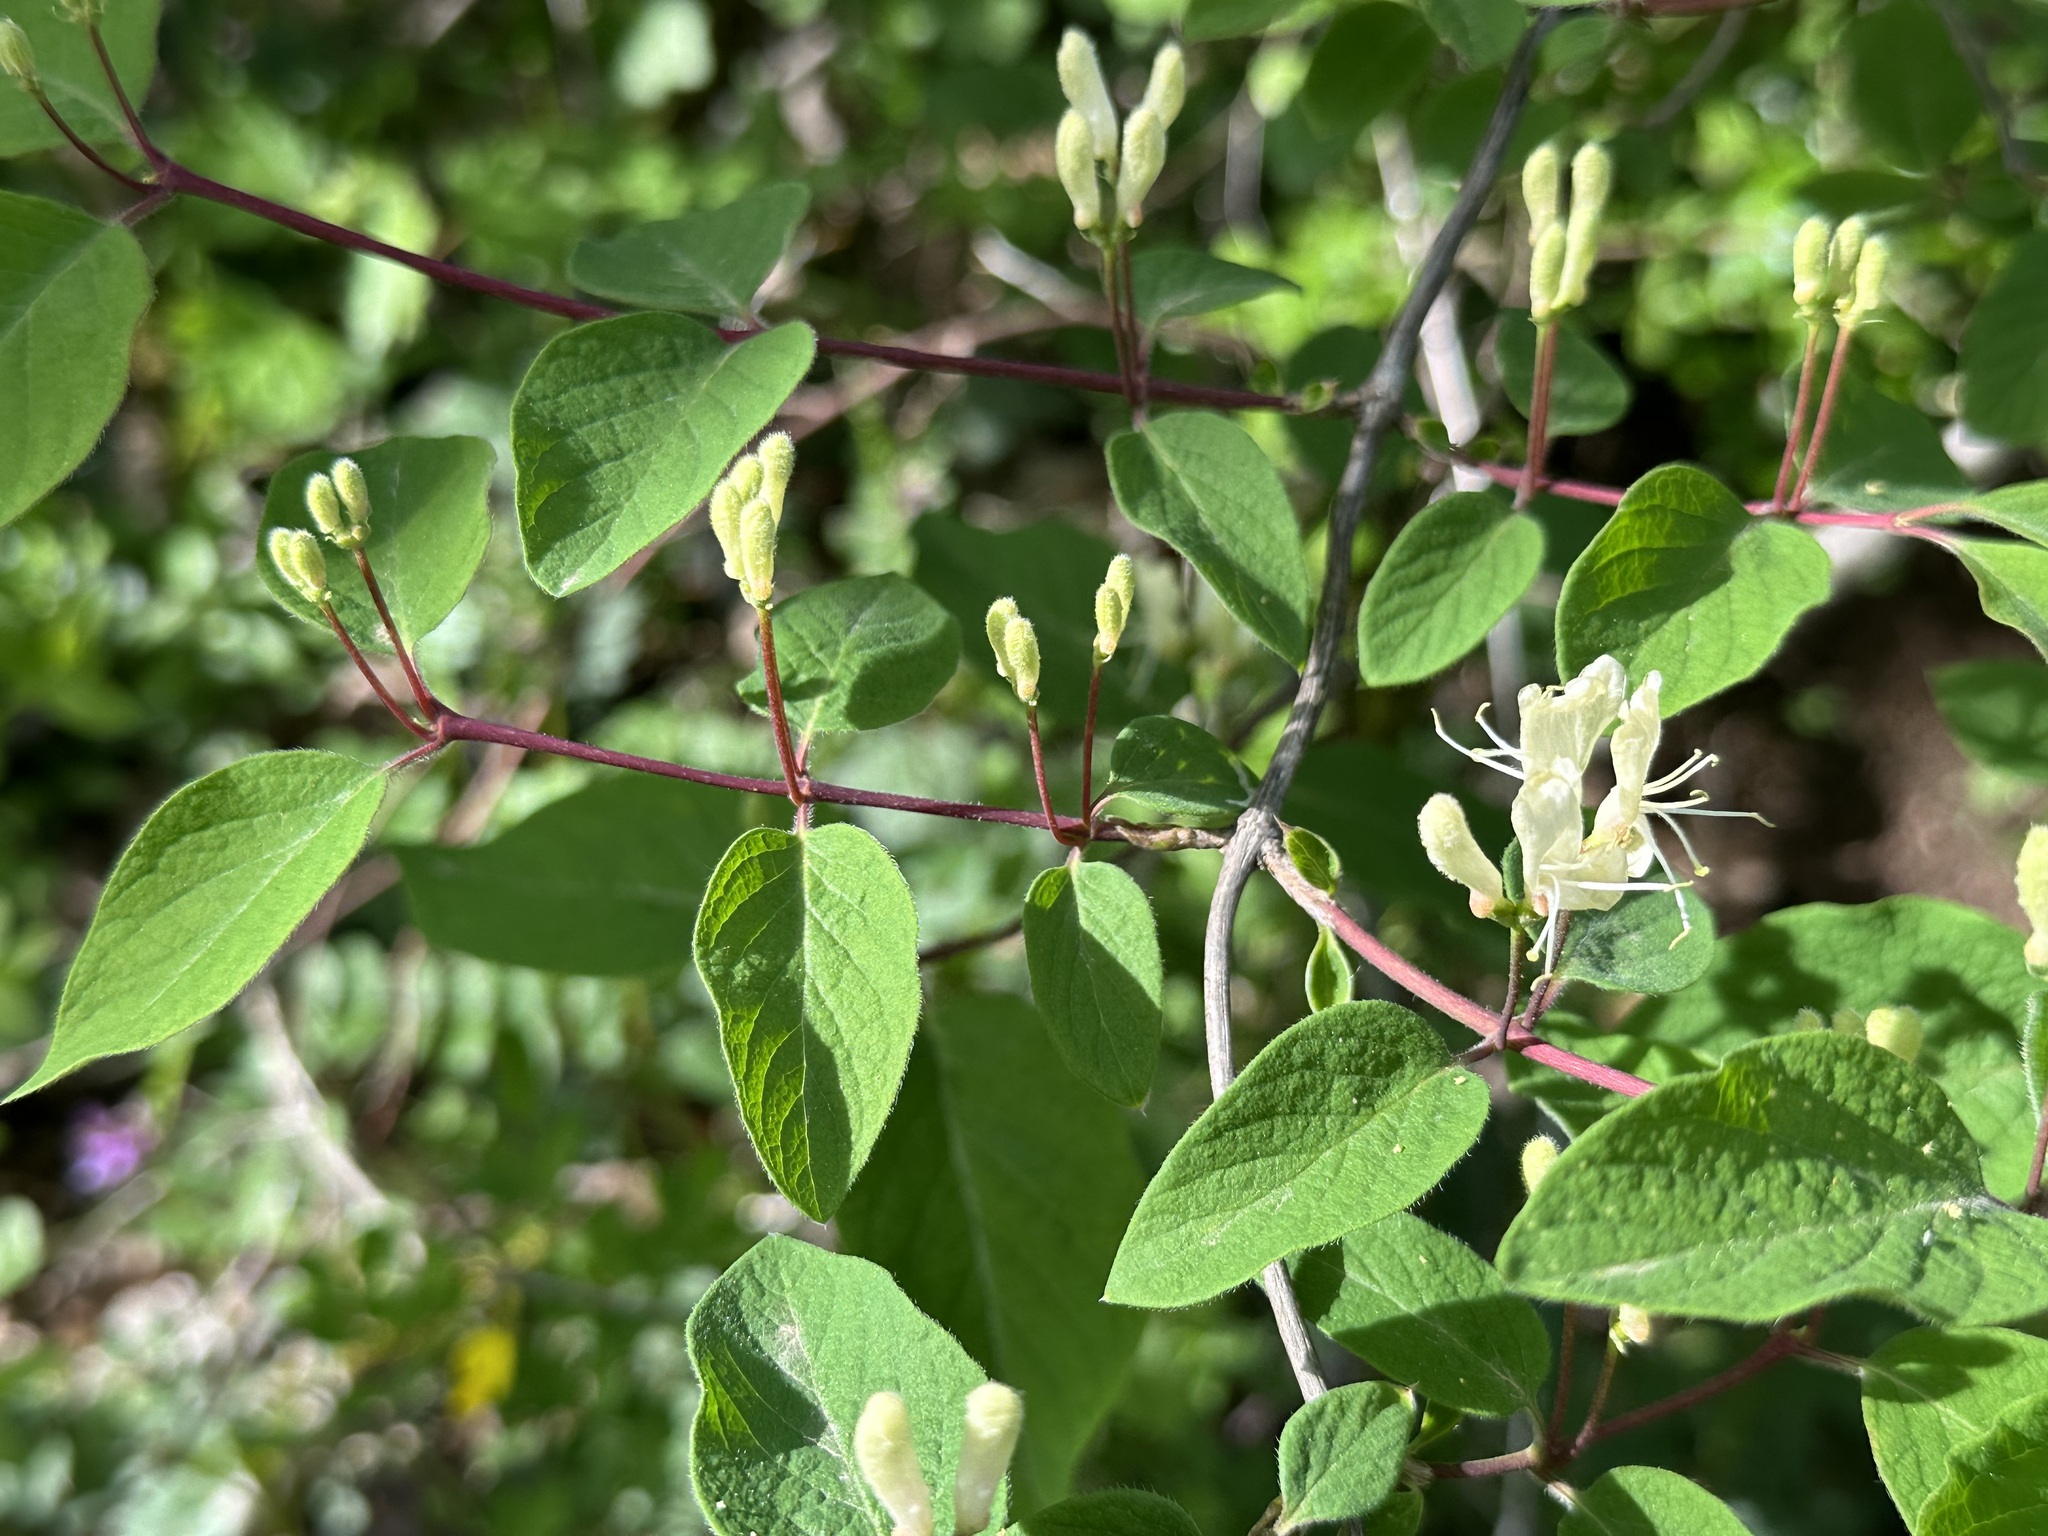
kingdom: Plantae
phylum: Tracheophyta
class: Magnoliopsida
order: Dipsacales
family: Caprifoliaceae
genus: Lonicera
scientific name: Lonicera xylosteum
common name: Fly honeysuckle
